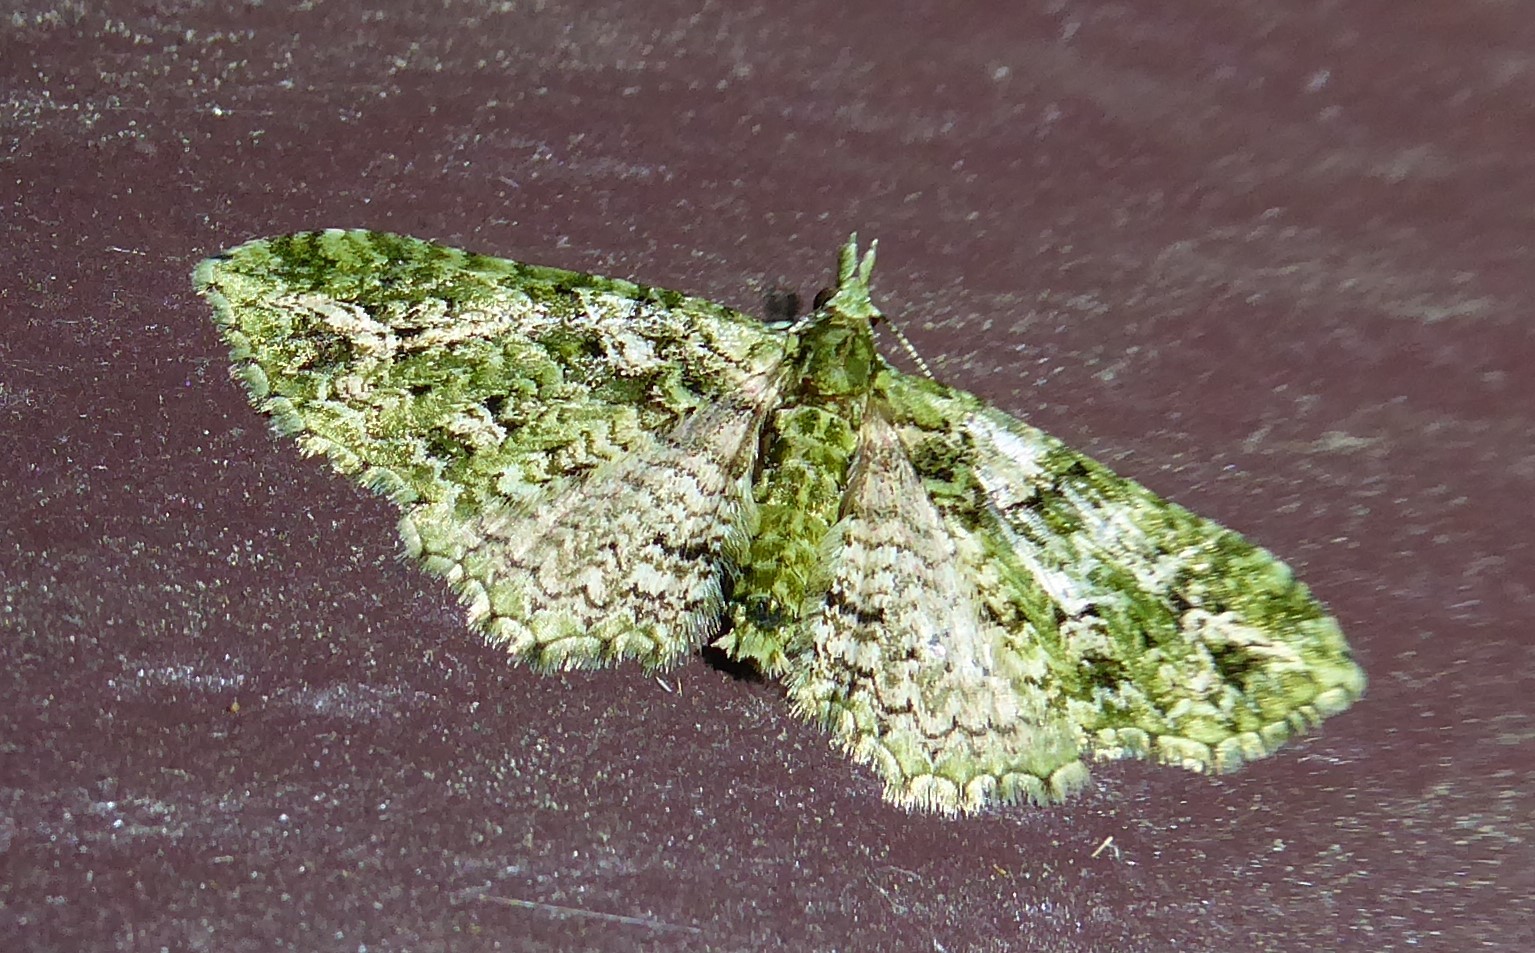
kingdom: Animalia
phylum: Arthropoda
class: Insecta
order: Lepidoptera
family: Geometridae
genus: Pasiphila
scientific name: Pasiphila muscosata
